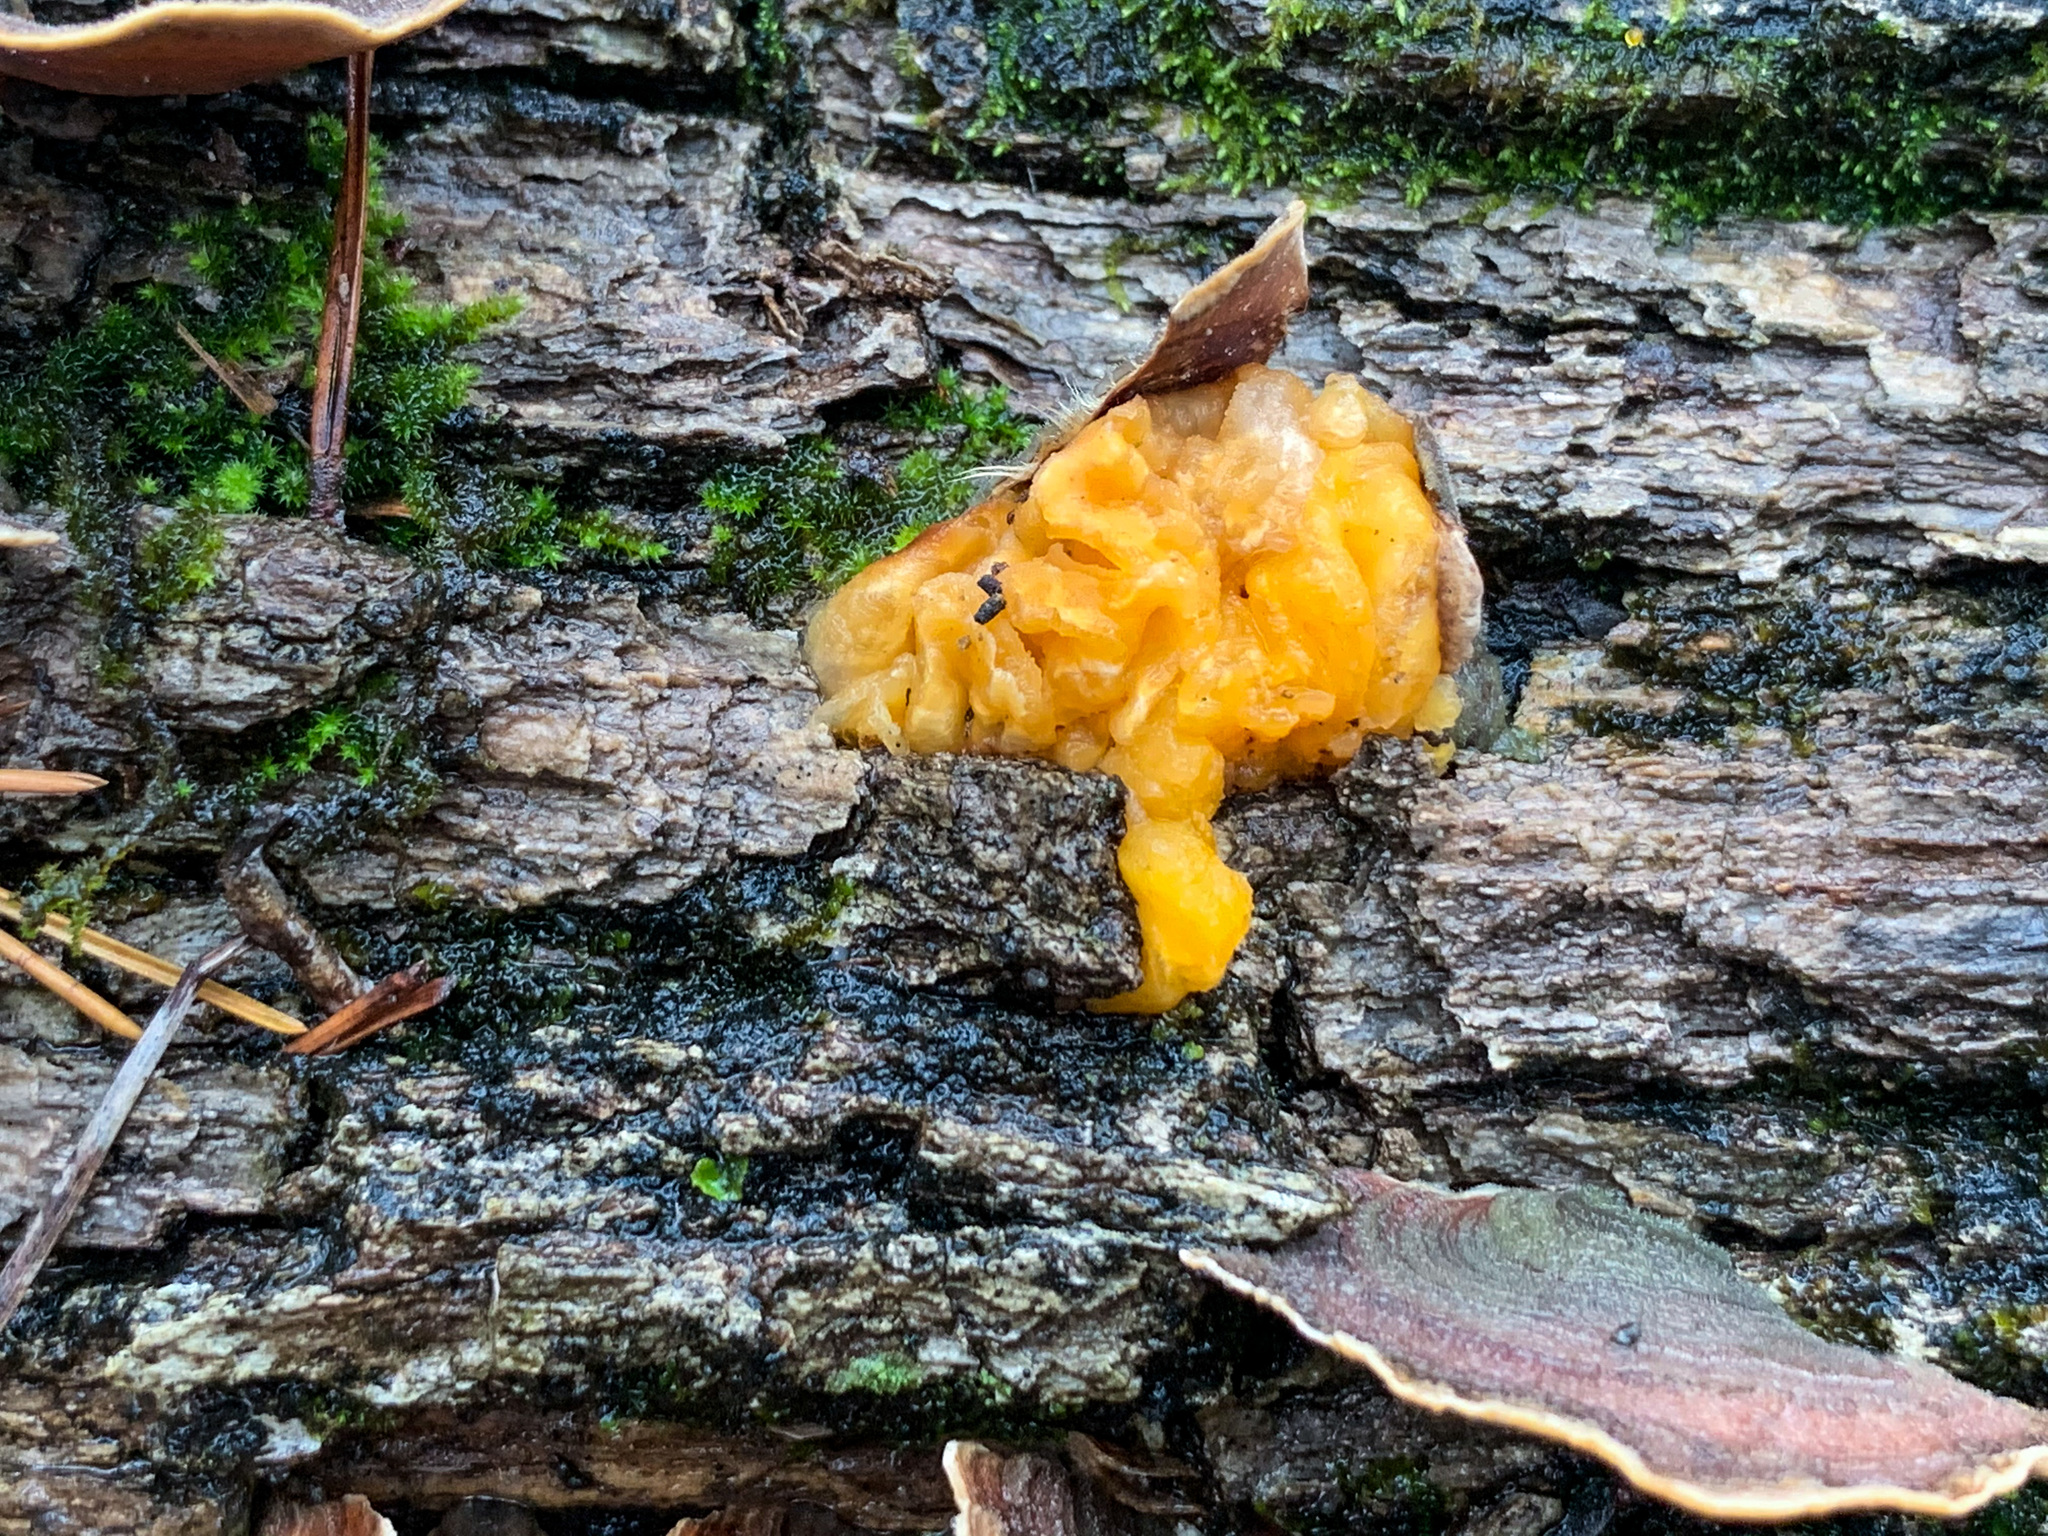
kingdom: Fungi
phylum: Basidiomycota
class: Tremellomycetes
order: Tremellales
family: Tremellaceae
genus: Tremella
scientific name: Tremella mesenterica
